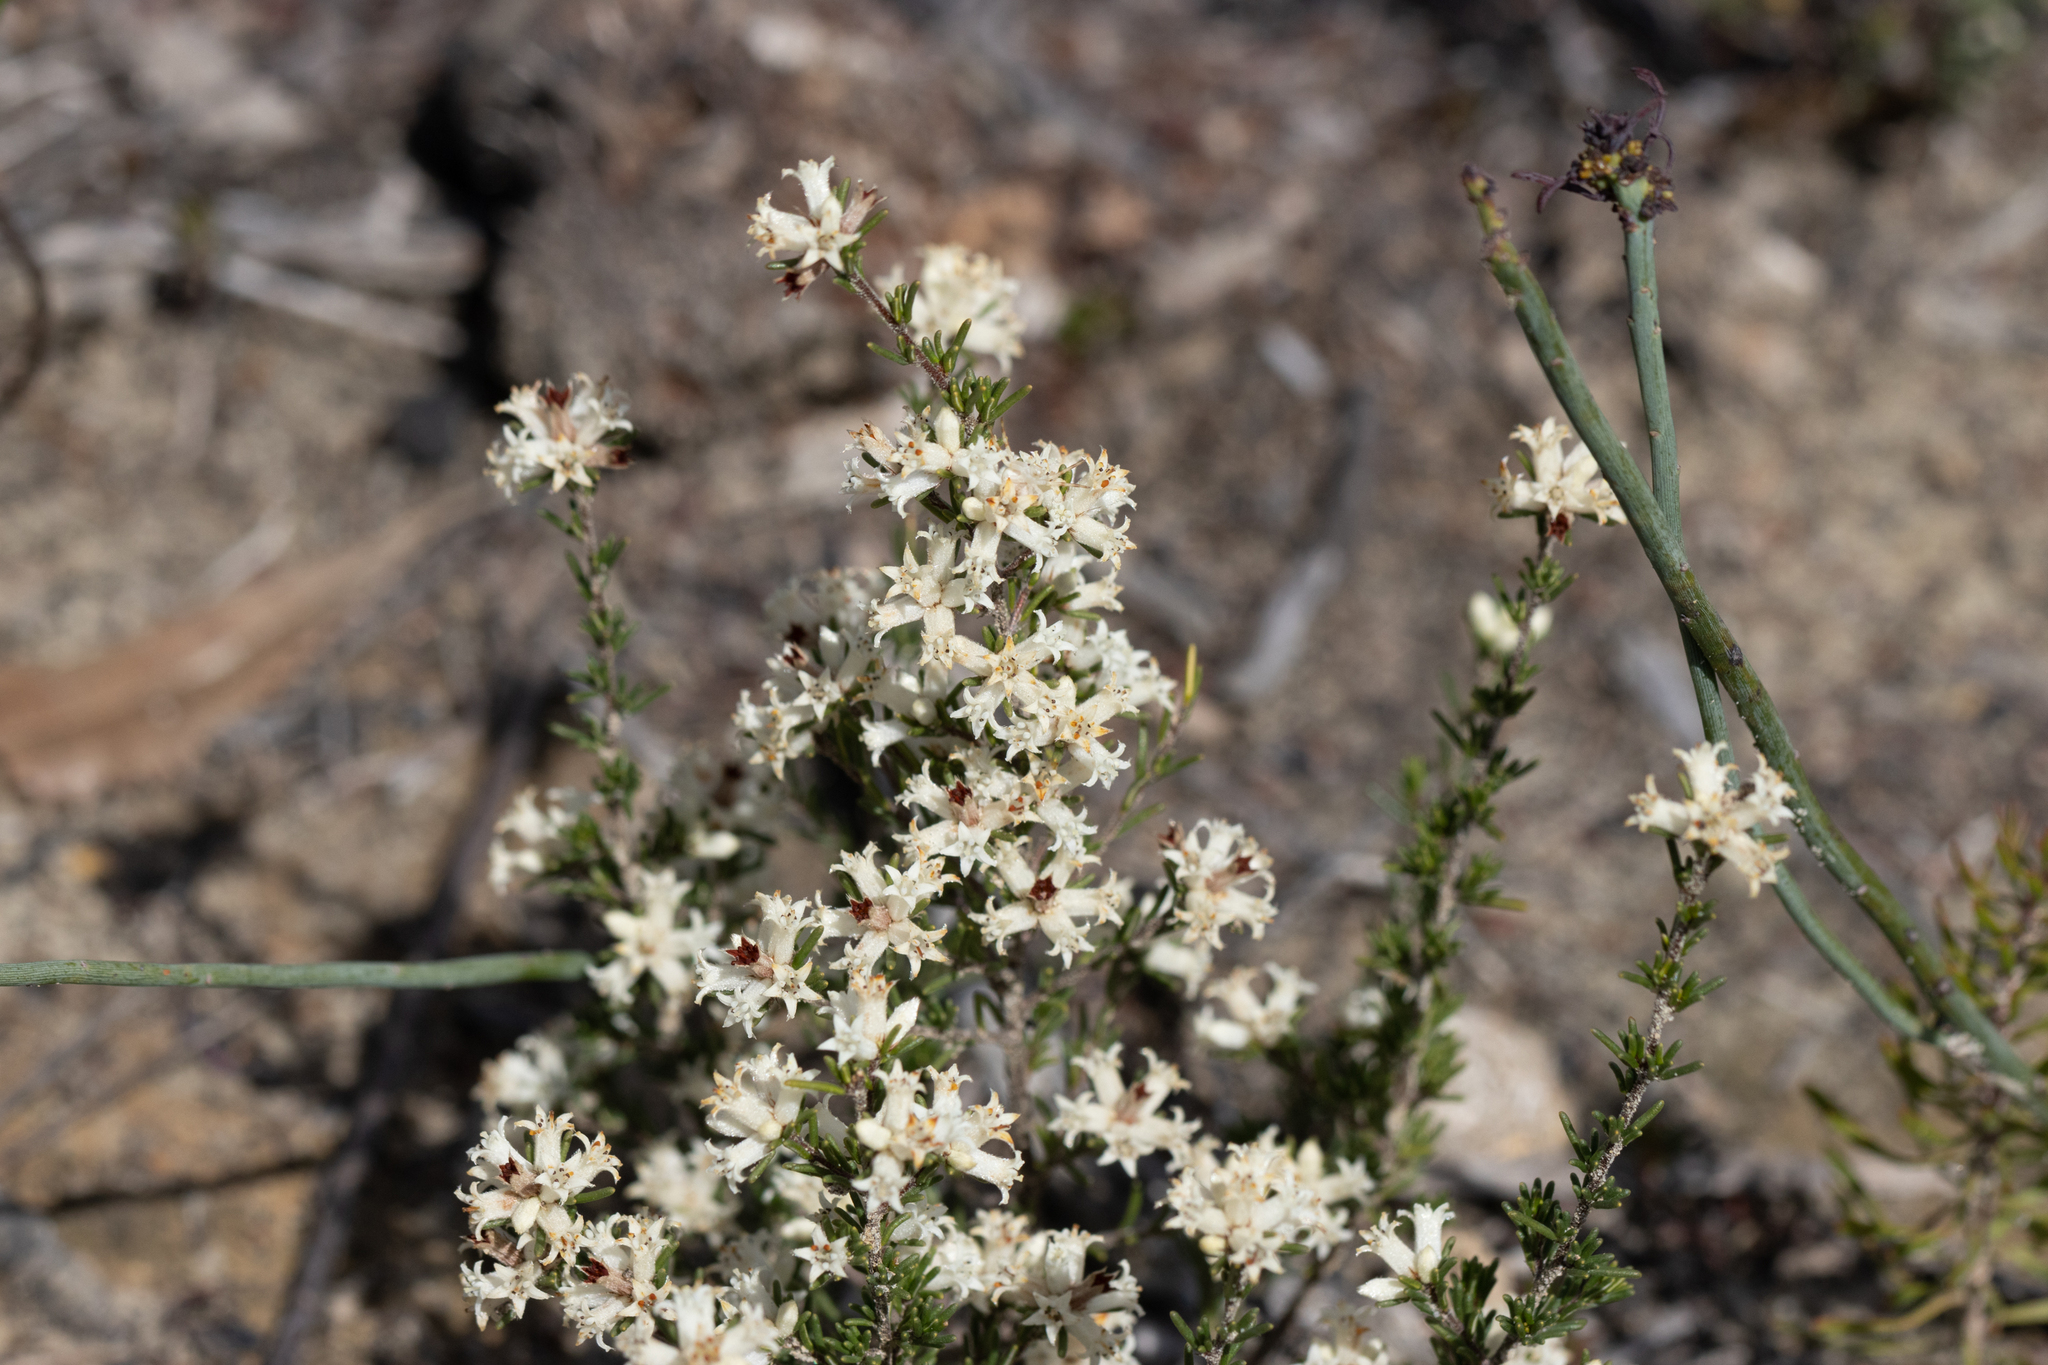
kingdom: Plantae
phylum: Tracheophyta
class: Magnoliopsida
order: Rosales
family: Rhamnaceae
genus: Cryptandra
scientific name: Cryptandra hispidula
